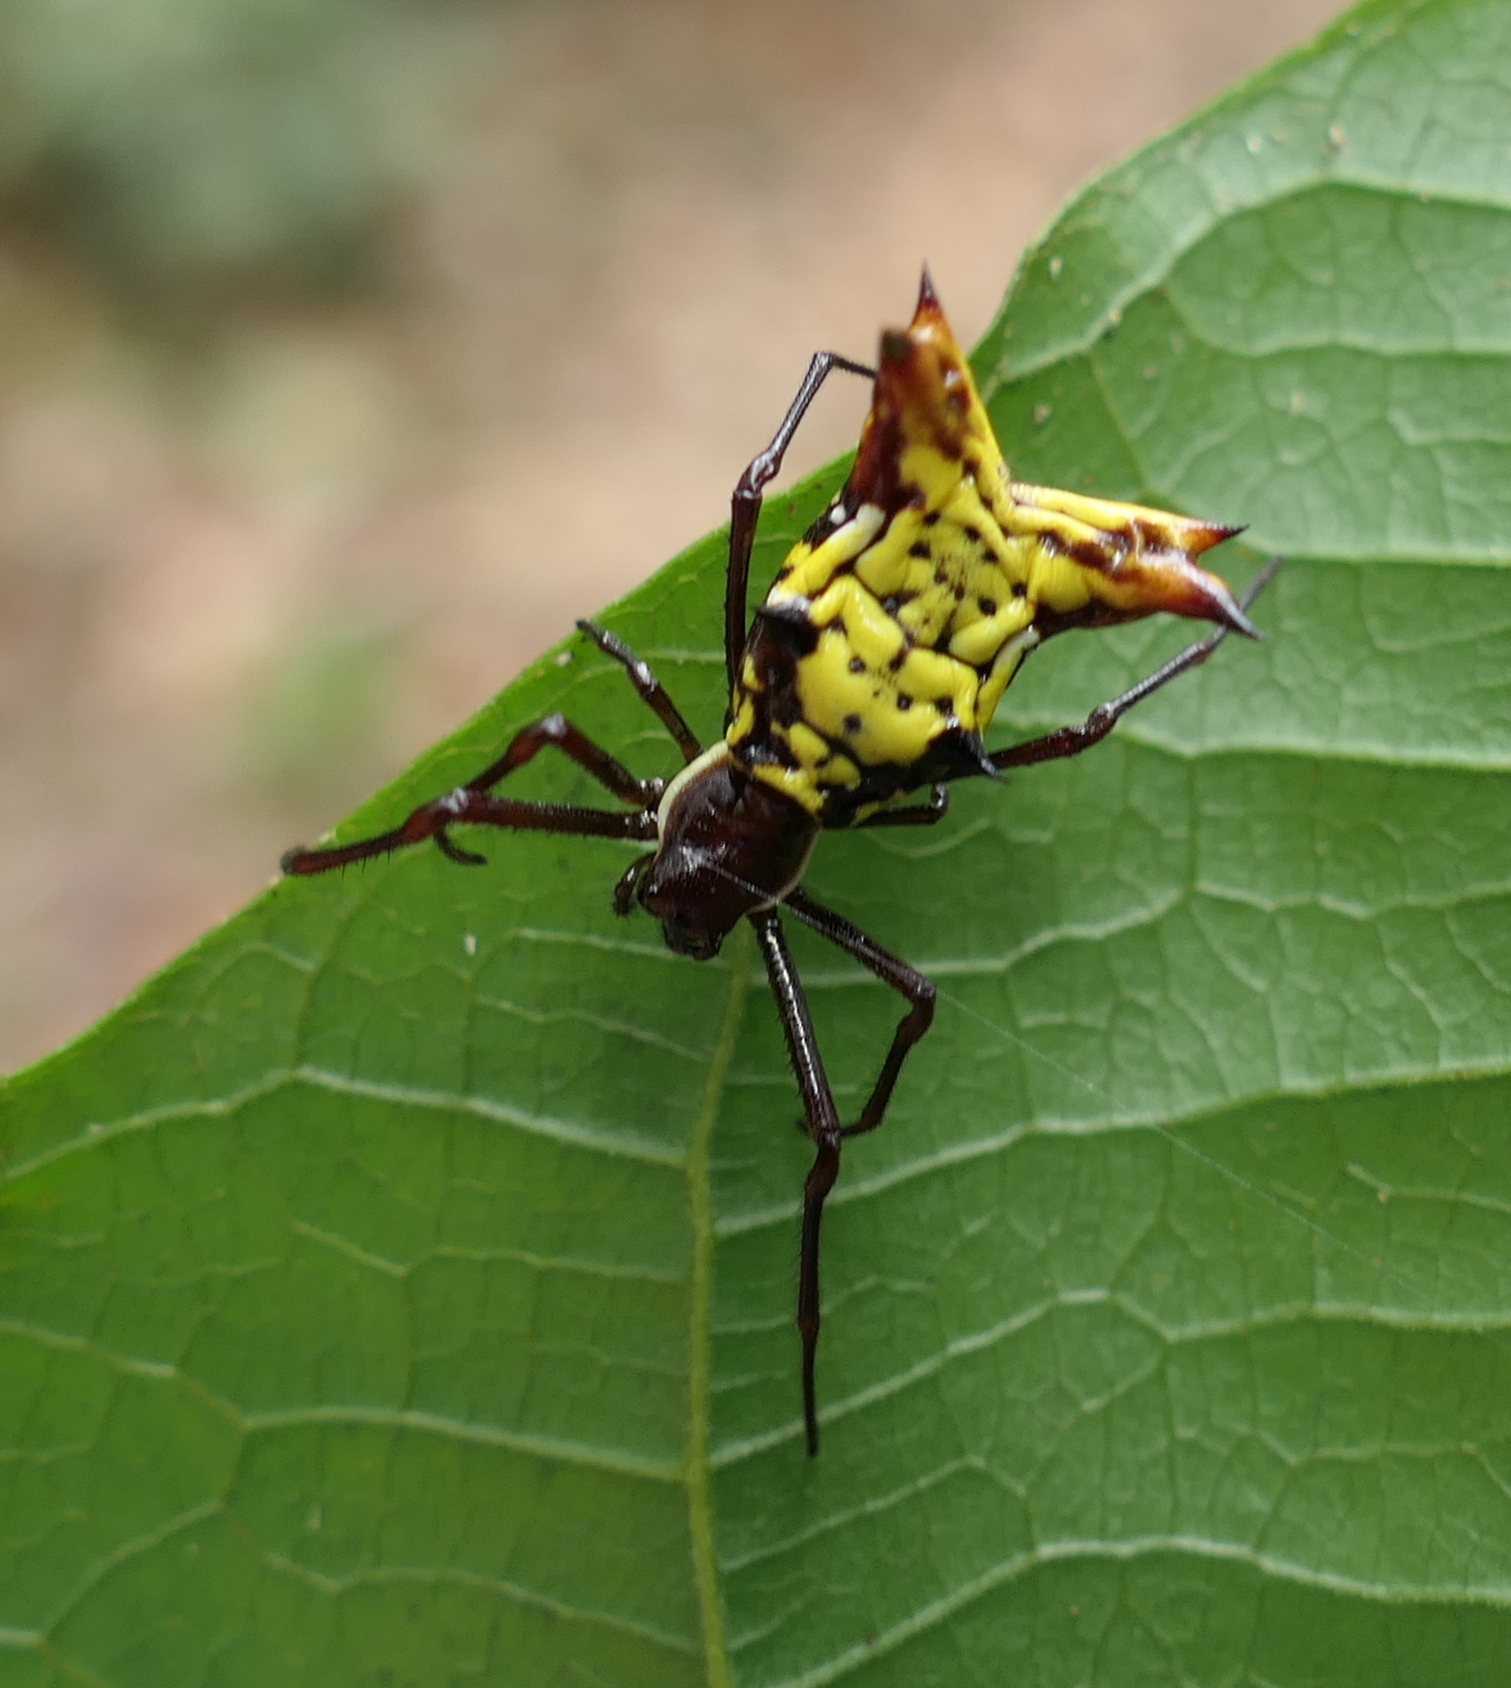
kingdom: Animalia
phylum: Arthropoda
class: Arachnida
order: Araneae
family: Araneidae
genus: Micrathena
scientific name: Micrathena fissispina
